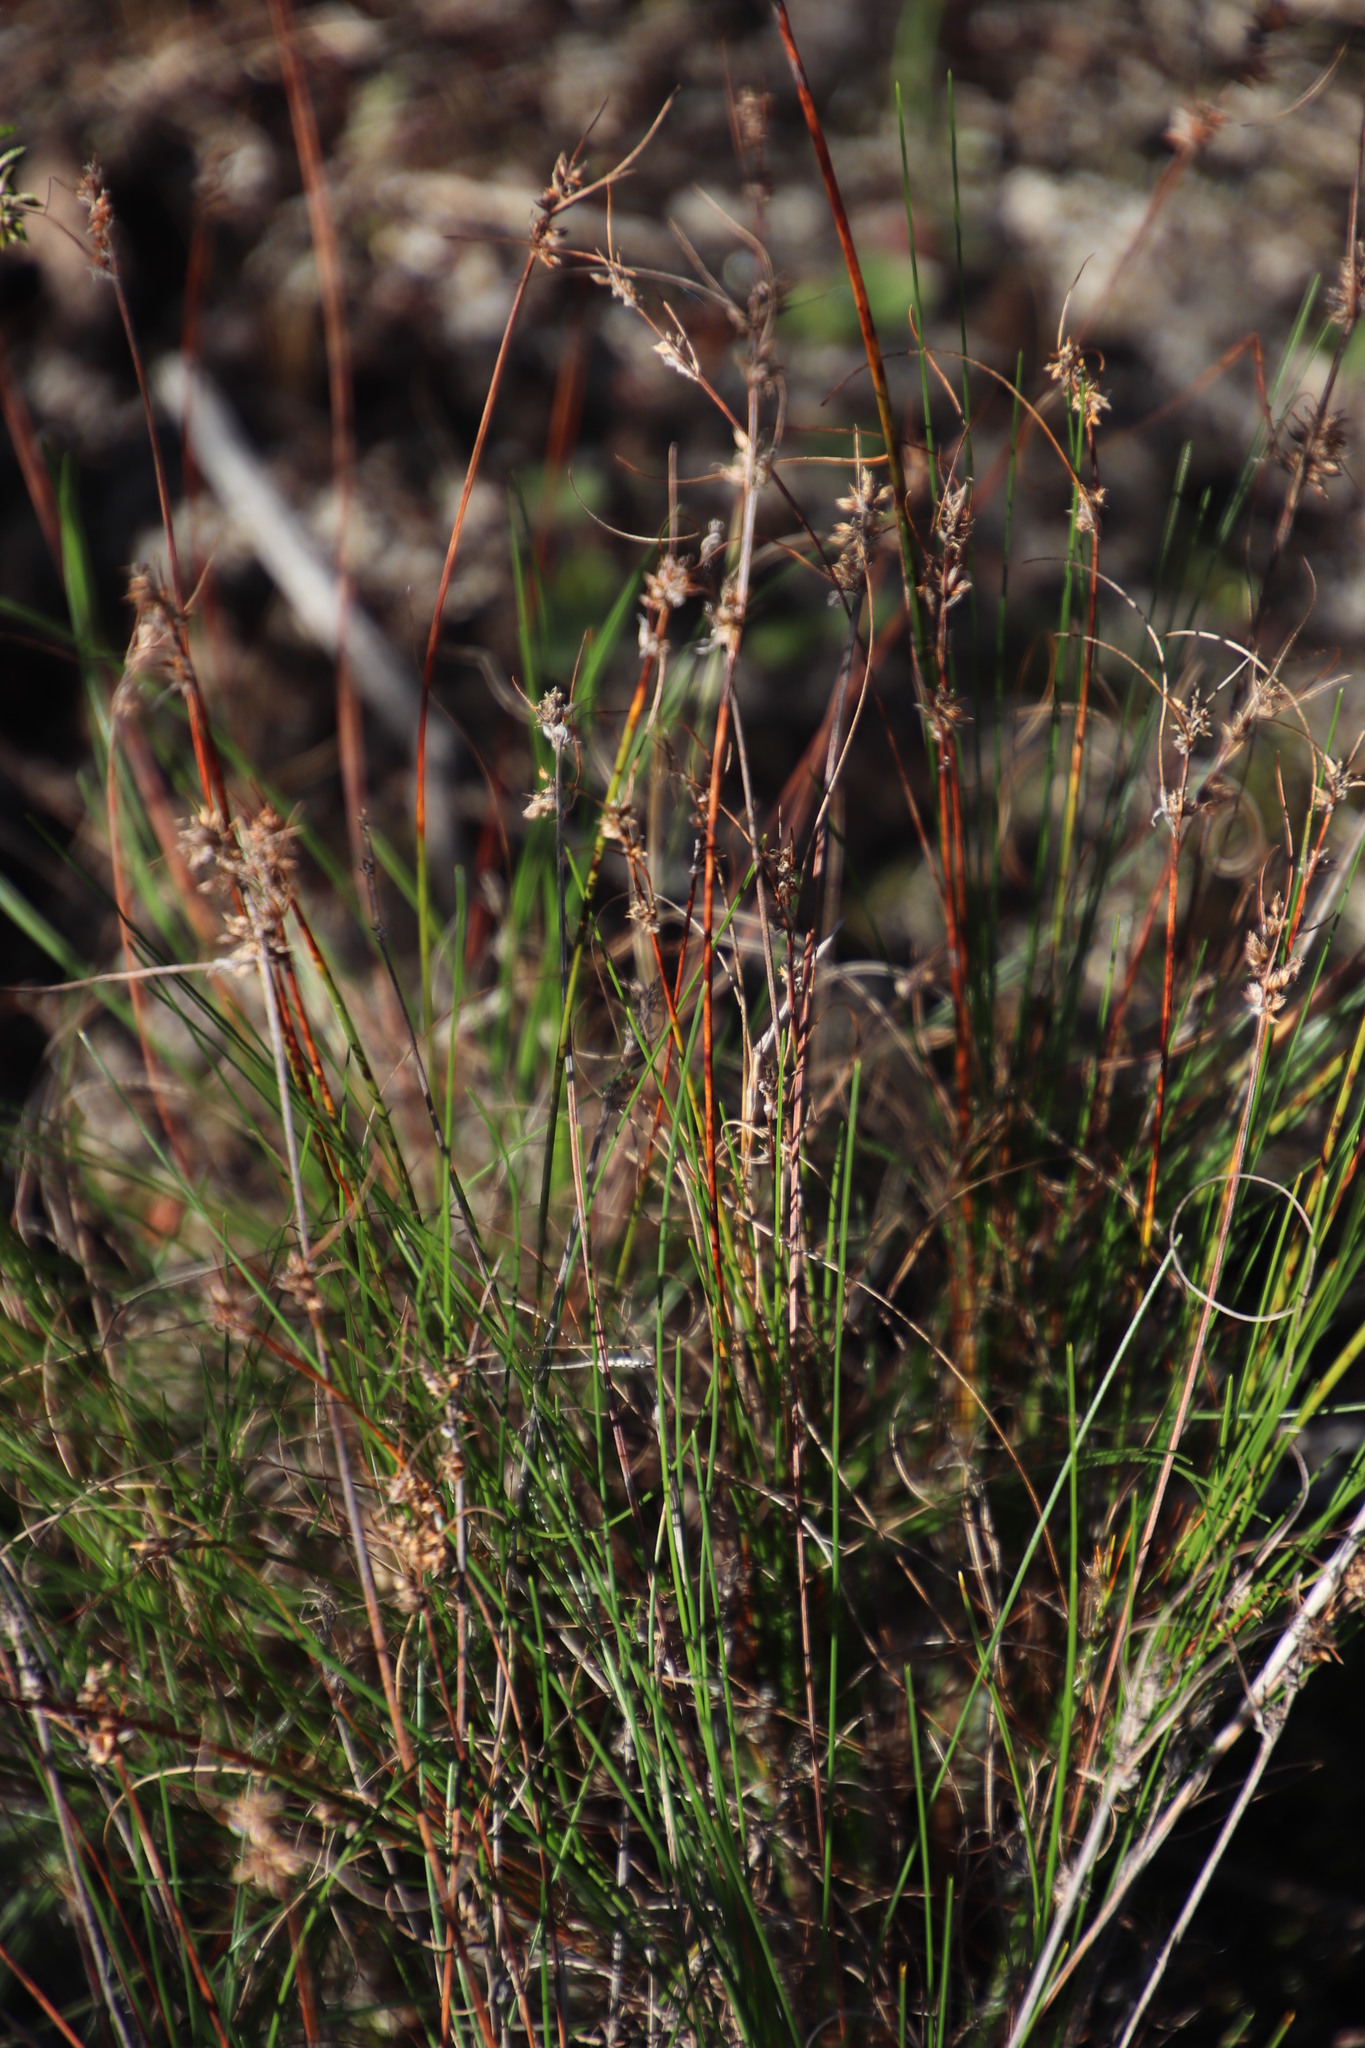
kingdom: Plantae
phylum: Tracheophyta
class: Liliopsida
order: Poales
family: Cyperaceae
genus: Ficinia
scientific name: Ficinia bulbosa
